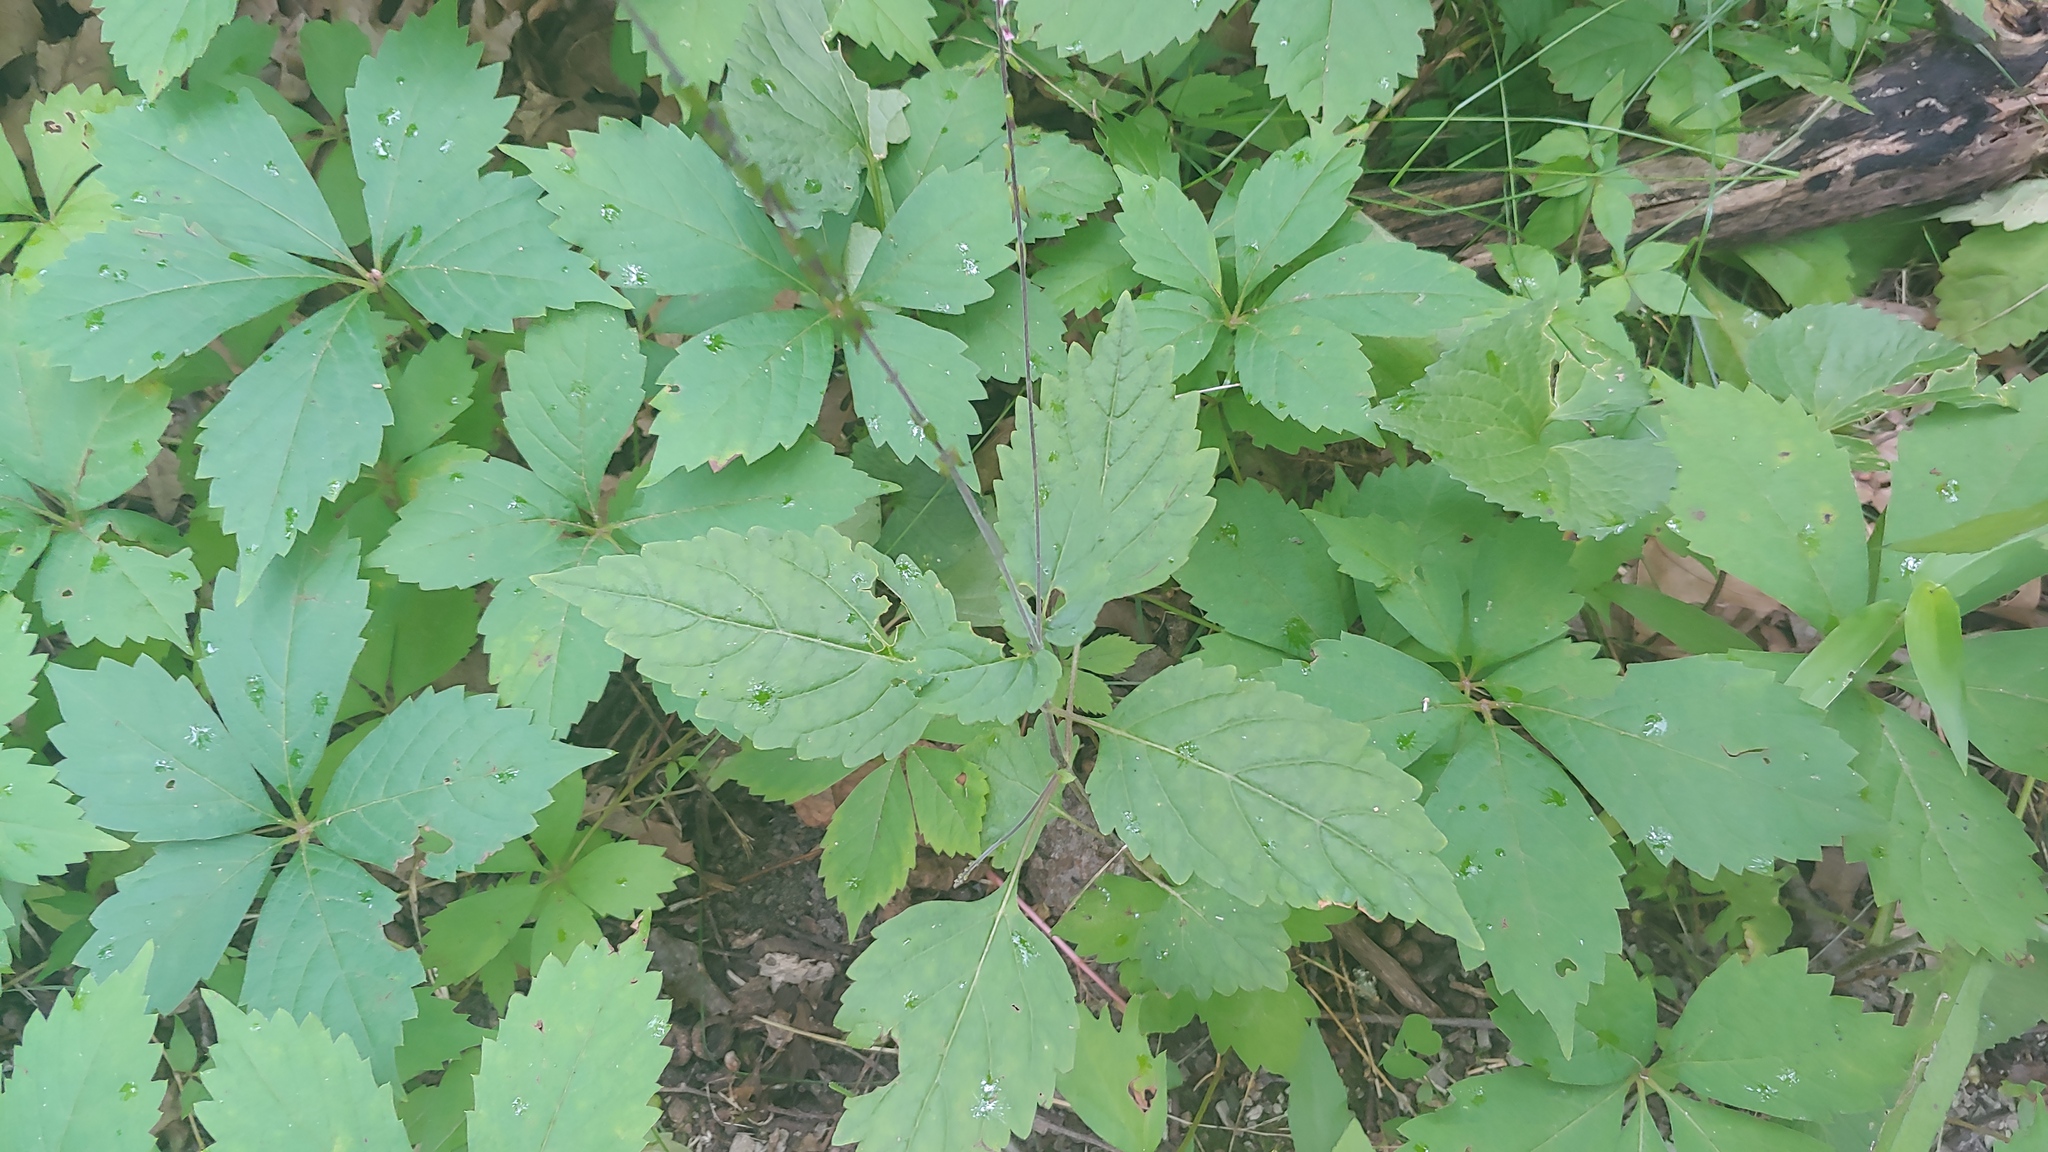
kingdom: Plantae
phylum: Tracheophyta
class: Magnoliopsida
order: Lamiales
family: Phrymaceae
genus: Phryma
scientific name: Phryma leptostachya
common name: American lopseed
